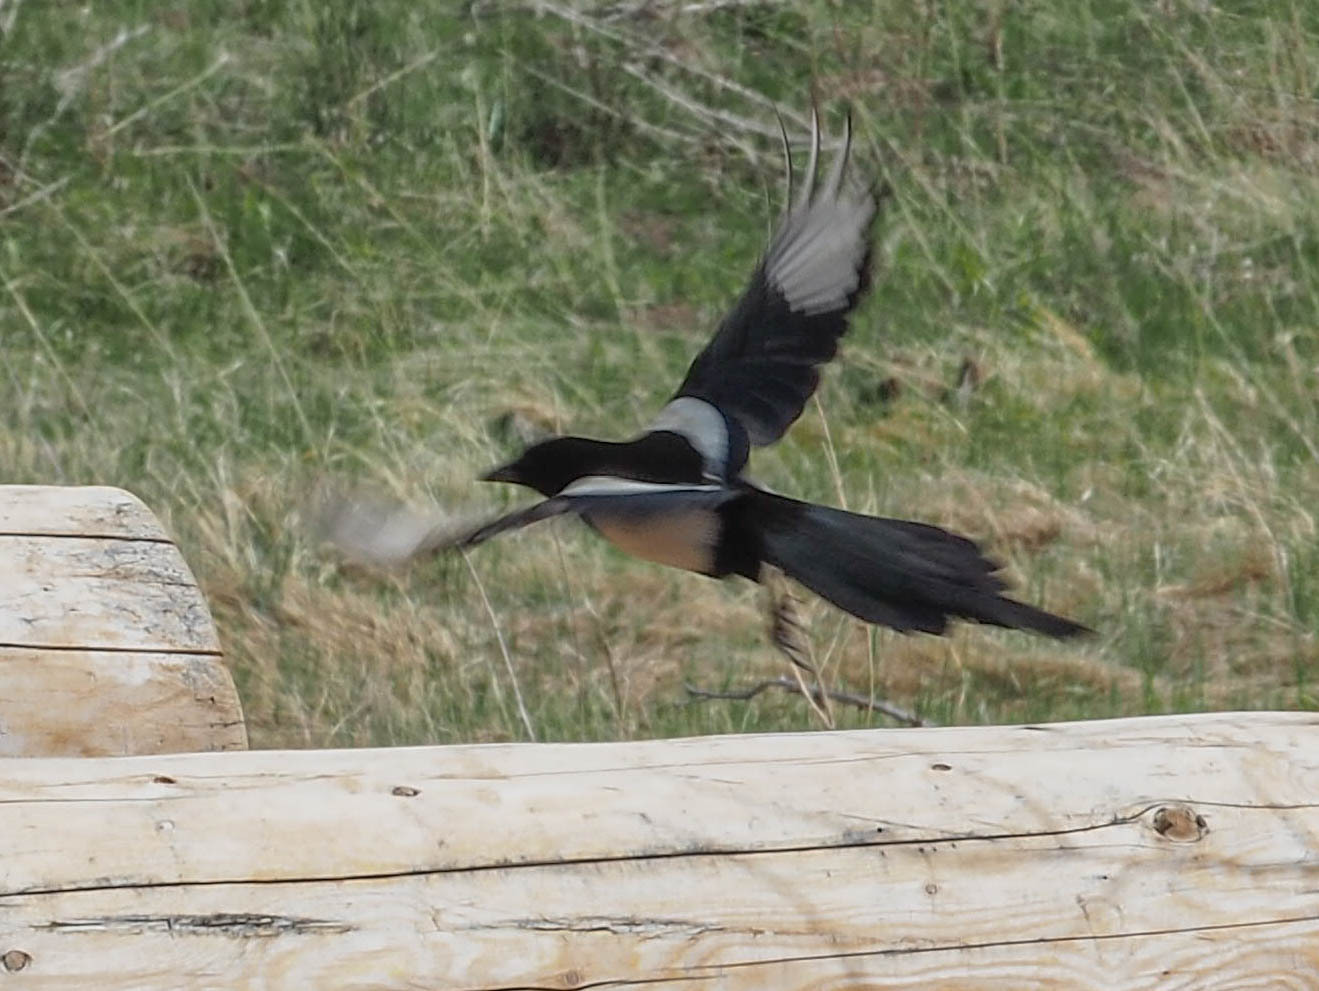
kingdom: Animalia
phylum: Chordata
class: Aves
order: Passeriformes
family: Corvidae
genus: Pica
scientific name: Pica hudsonia
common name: Black-billed magpie
